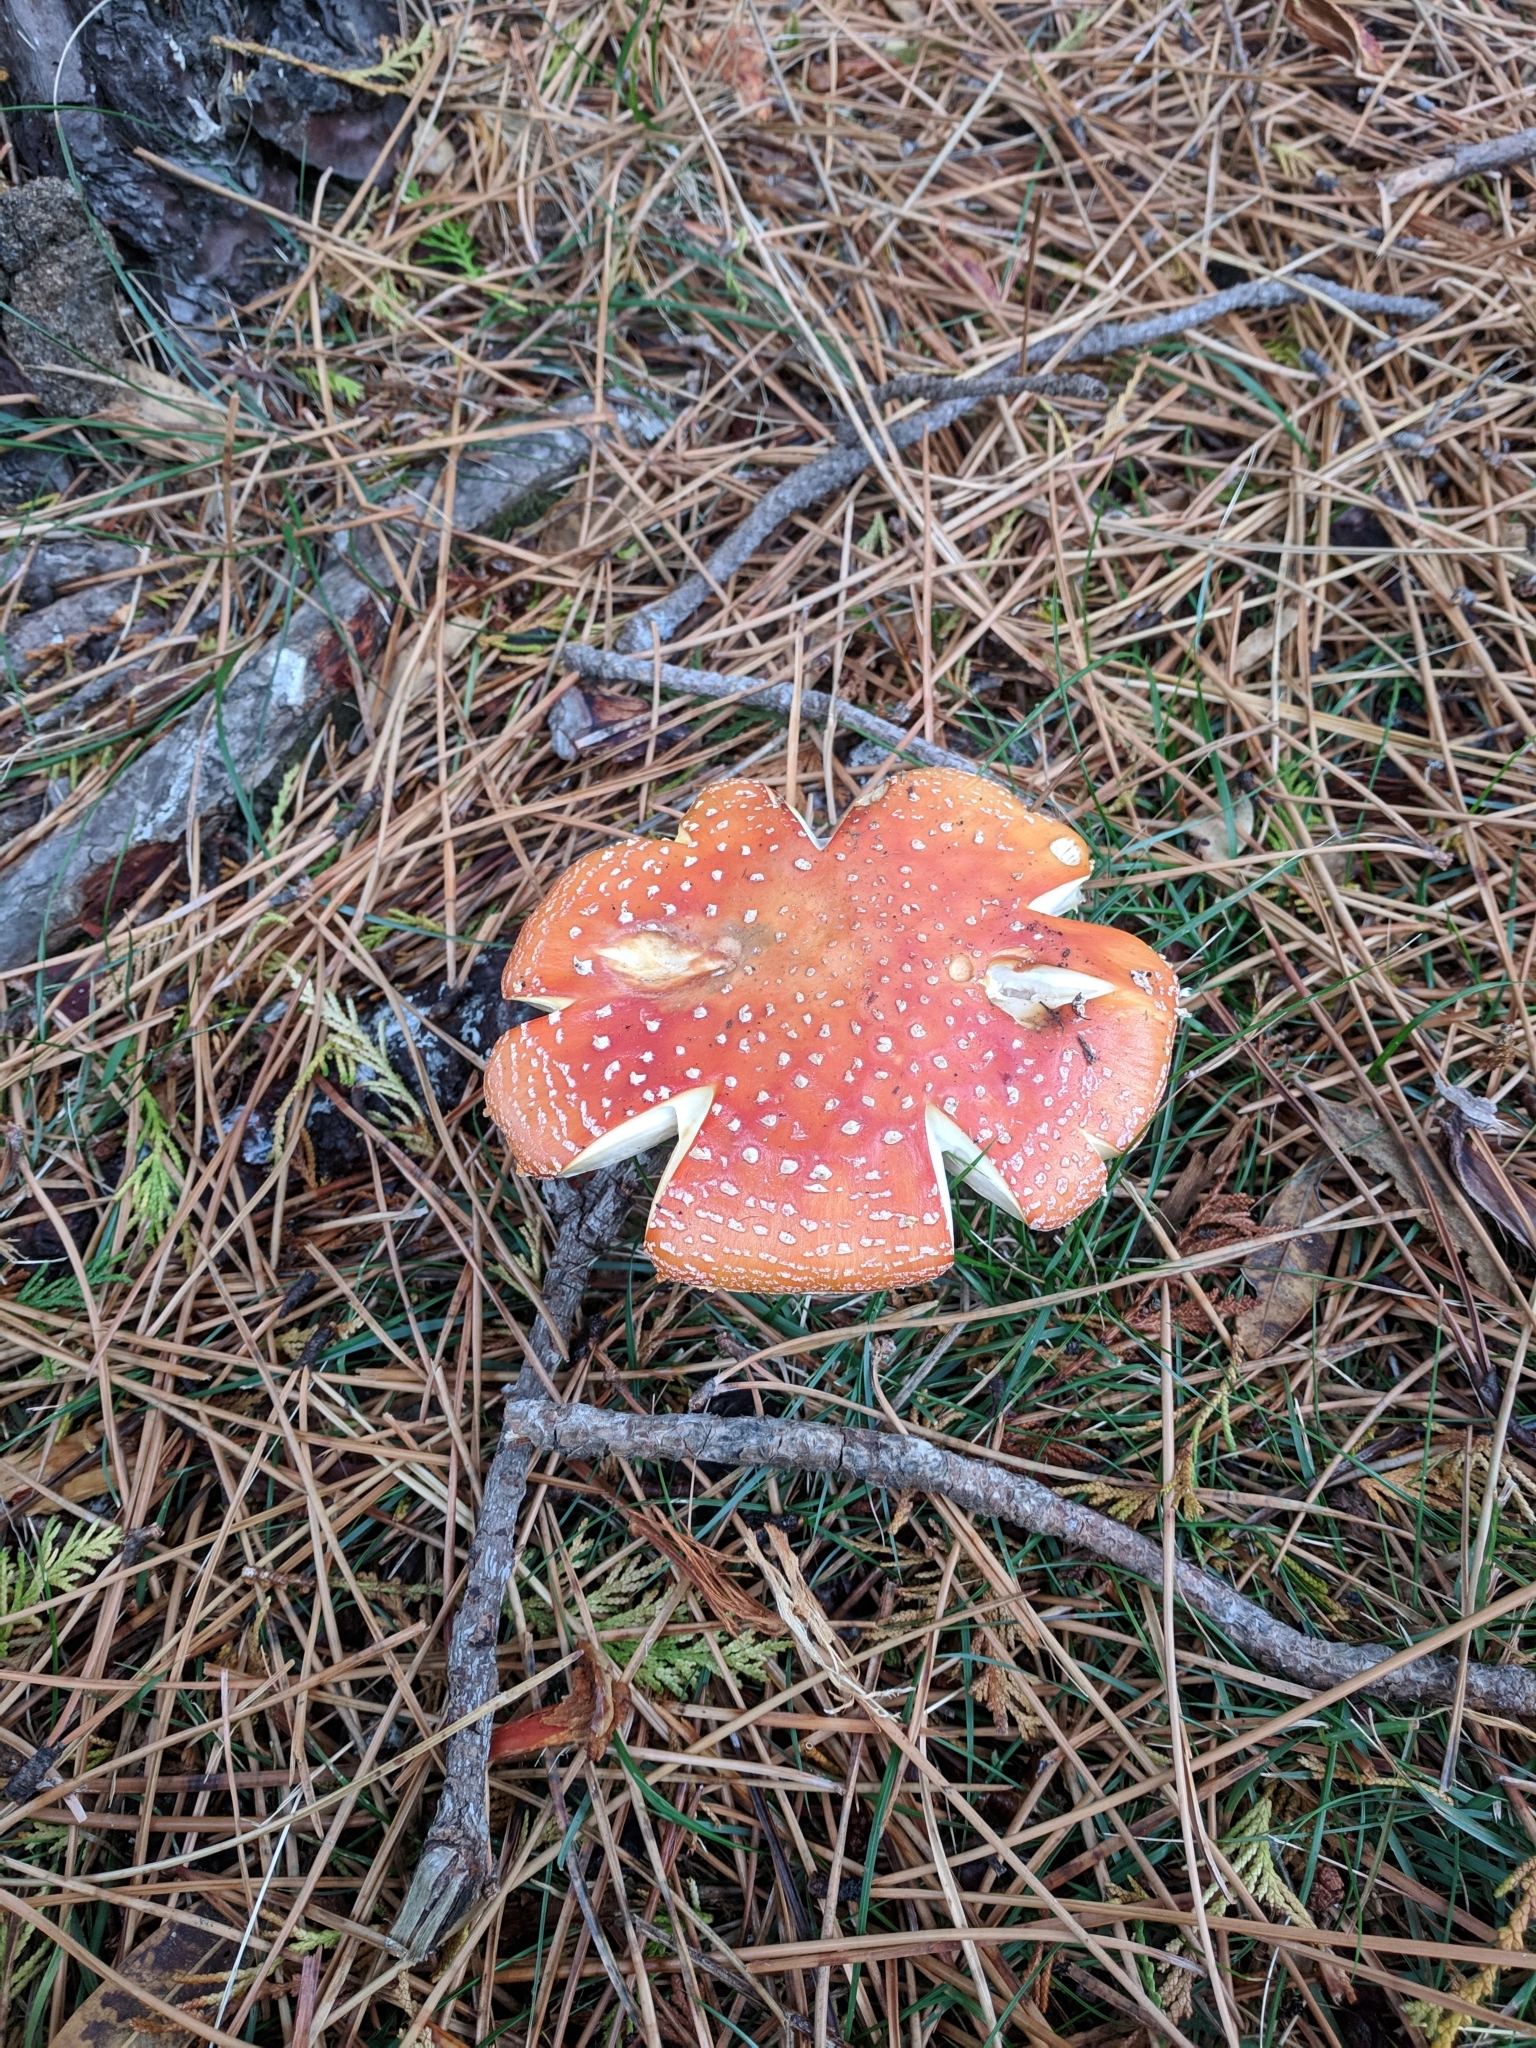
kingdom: Fungi
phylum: Basidiomycota
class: Agaricomycetes
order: Agaricales
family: Amanitaceae
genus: Amanita
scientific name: Amanita muscaria
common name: Fly agaric
